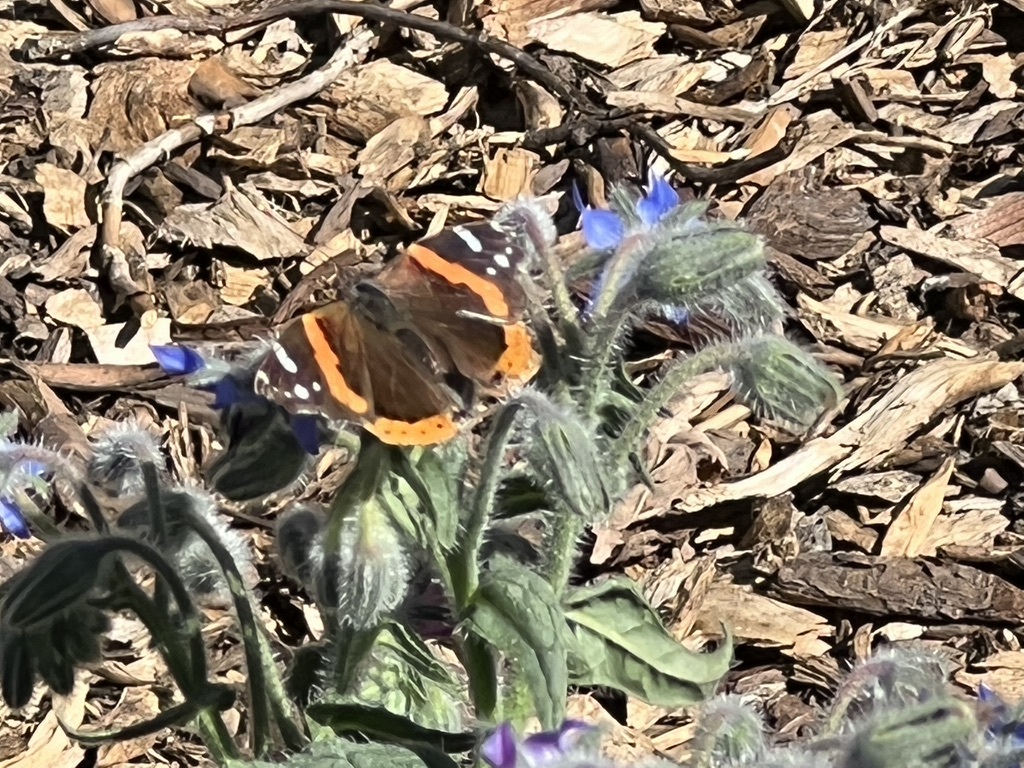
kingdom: Animalia
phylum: Arthropoda
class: Insecta
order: Lepidoptera
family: Nymphalidae
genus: Vanessa
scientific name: Vanessa atalanta
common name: Red admiral
